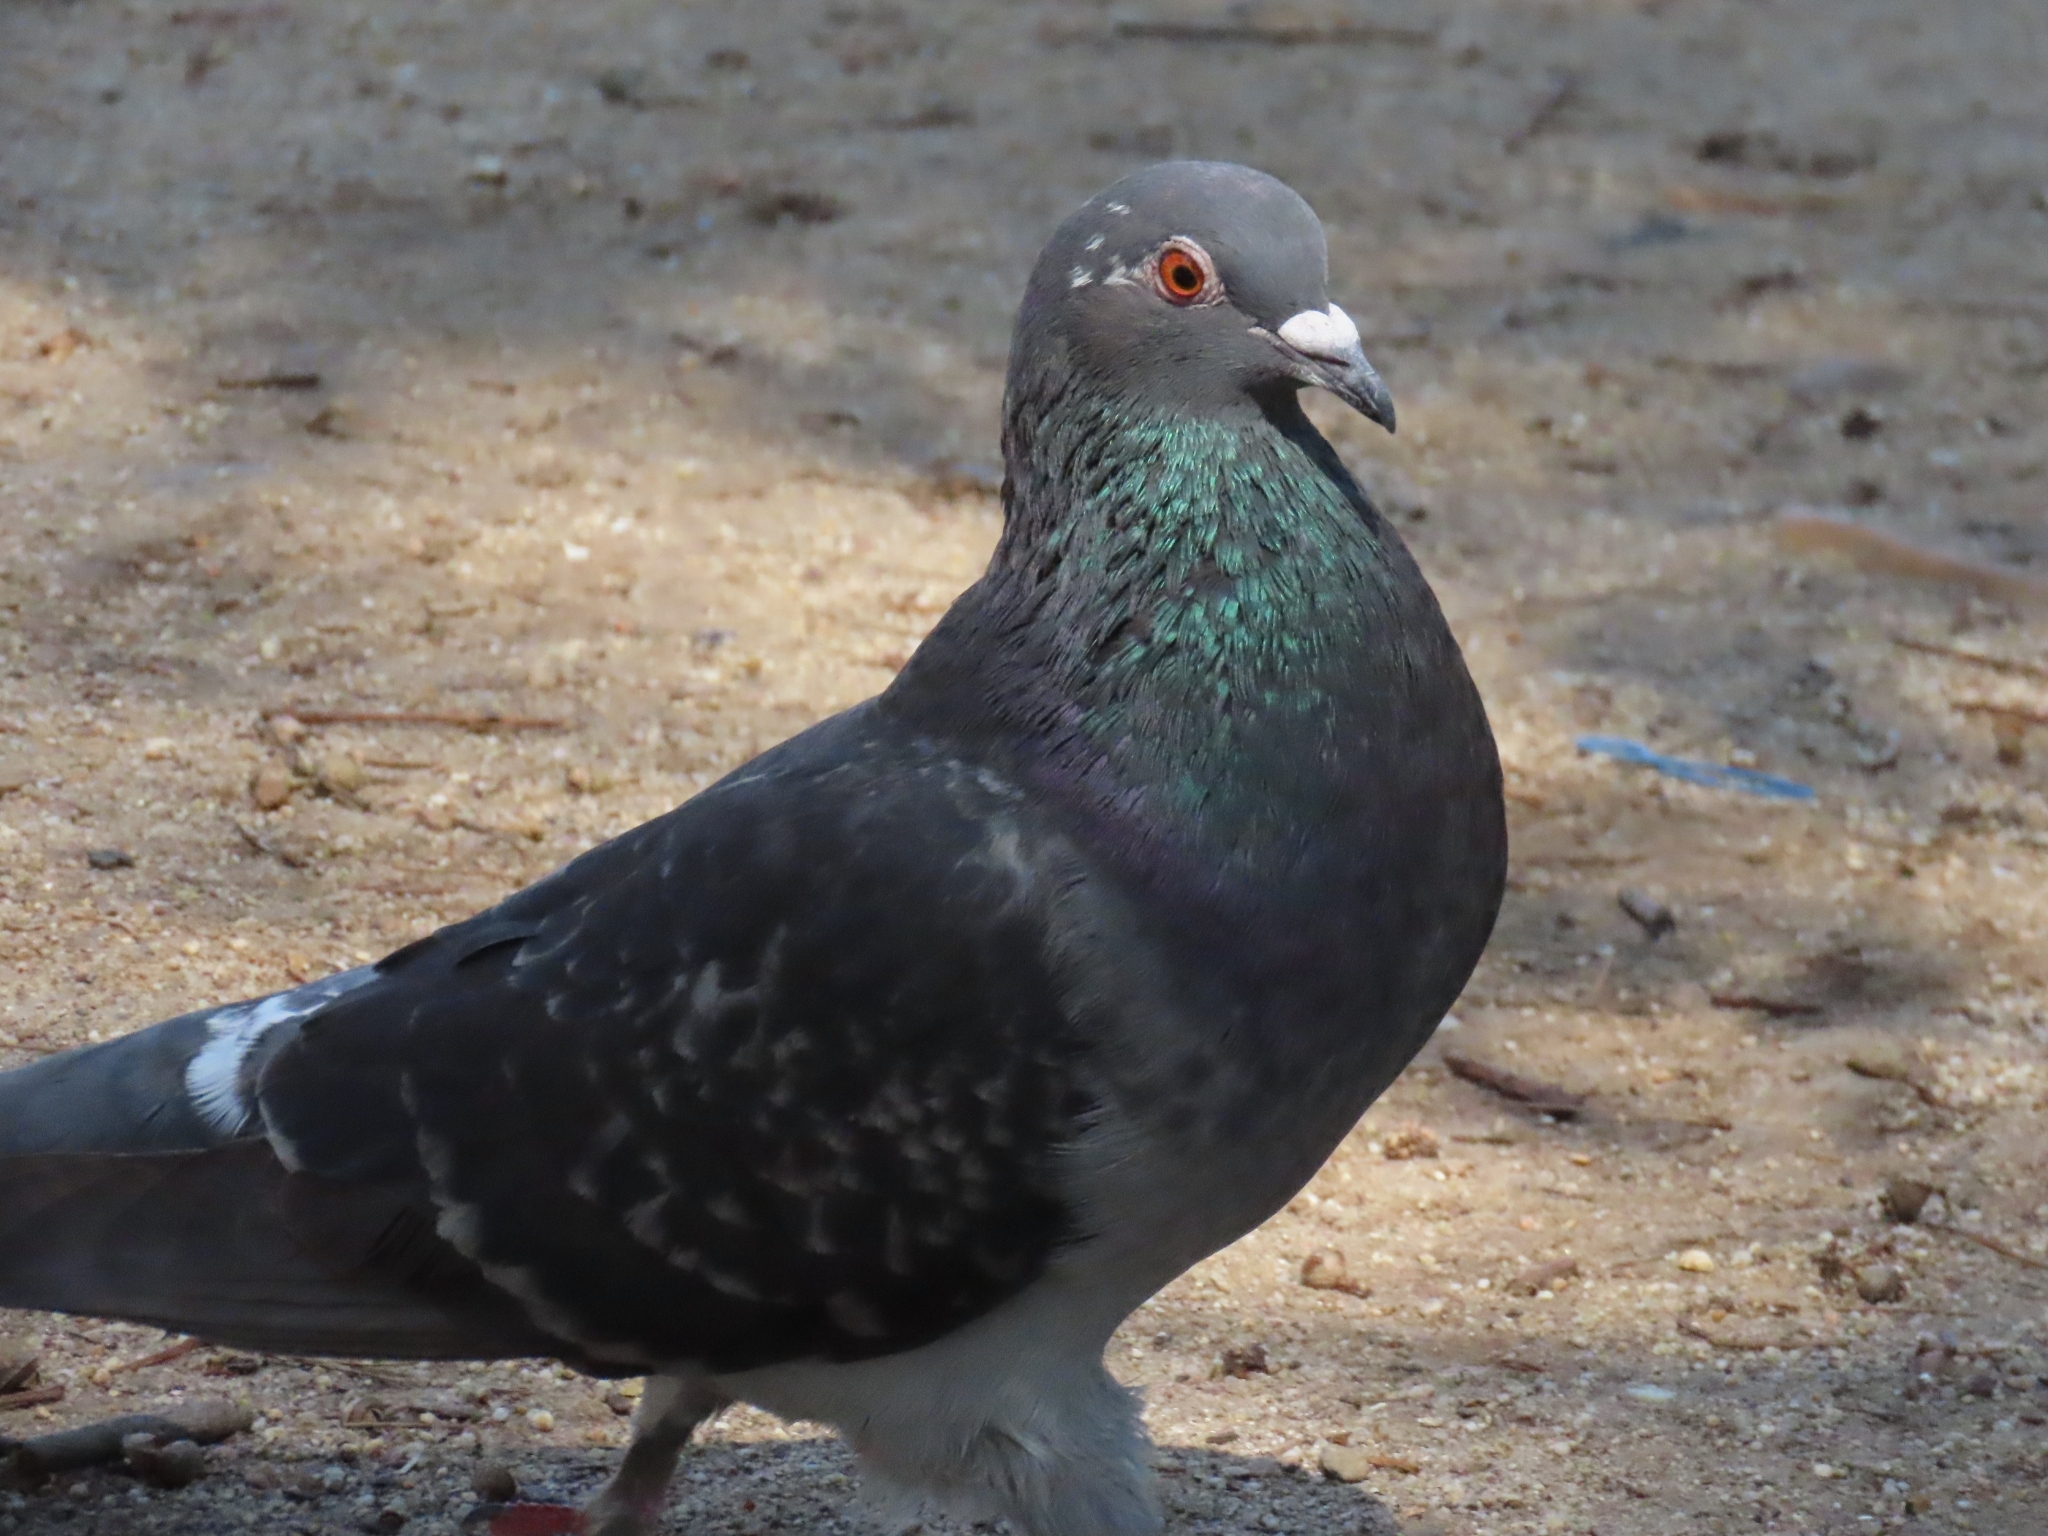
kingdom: Animalia
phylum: Chordata
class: Aves
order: Columbiformes
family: Columbidae
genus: Columba
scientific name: Columba livia
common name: Rock pigeon
